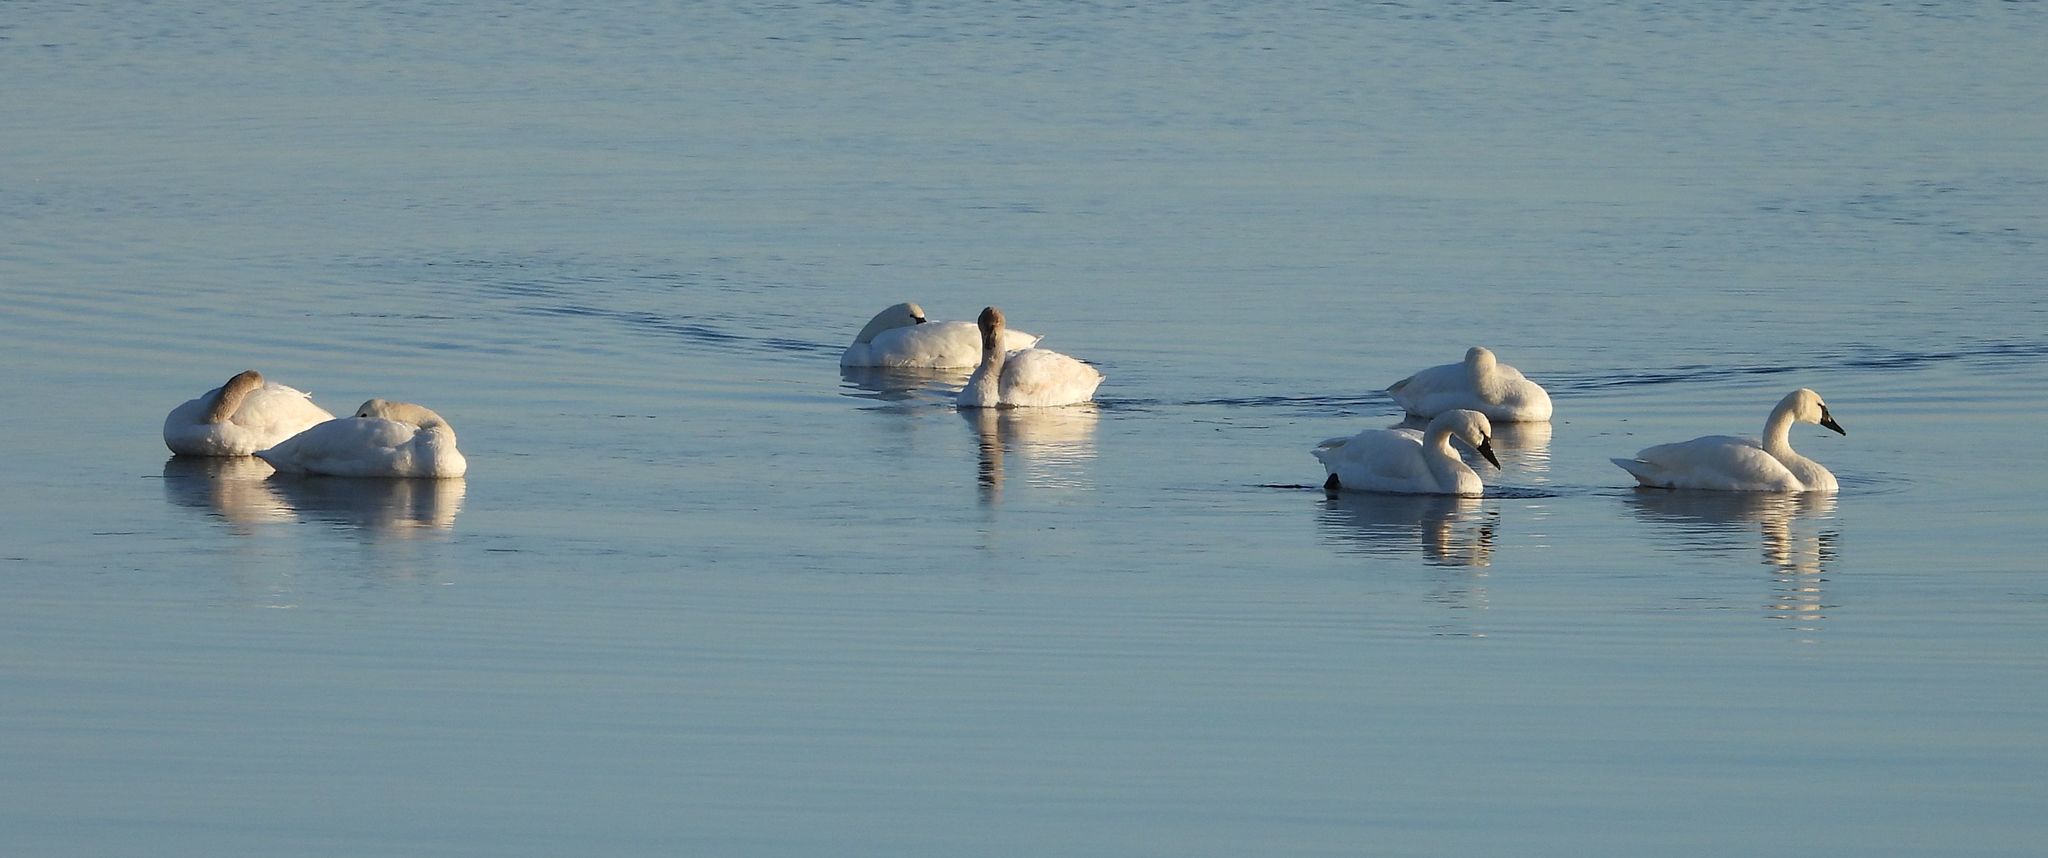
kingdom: Animalia
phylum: Chordata
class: Aves
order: Anseriformes
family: Anatidae
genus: Cygnus
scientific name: Cygnus columbianus
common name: Tundra swan
